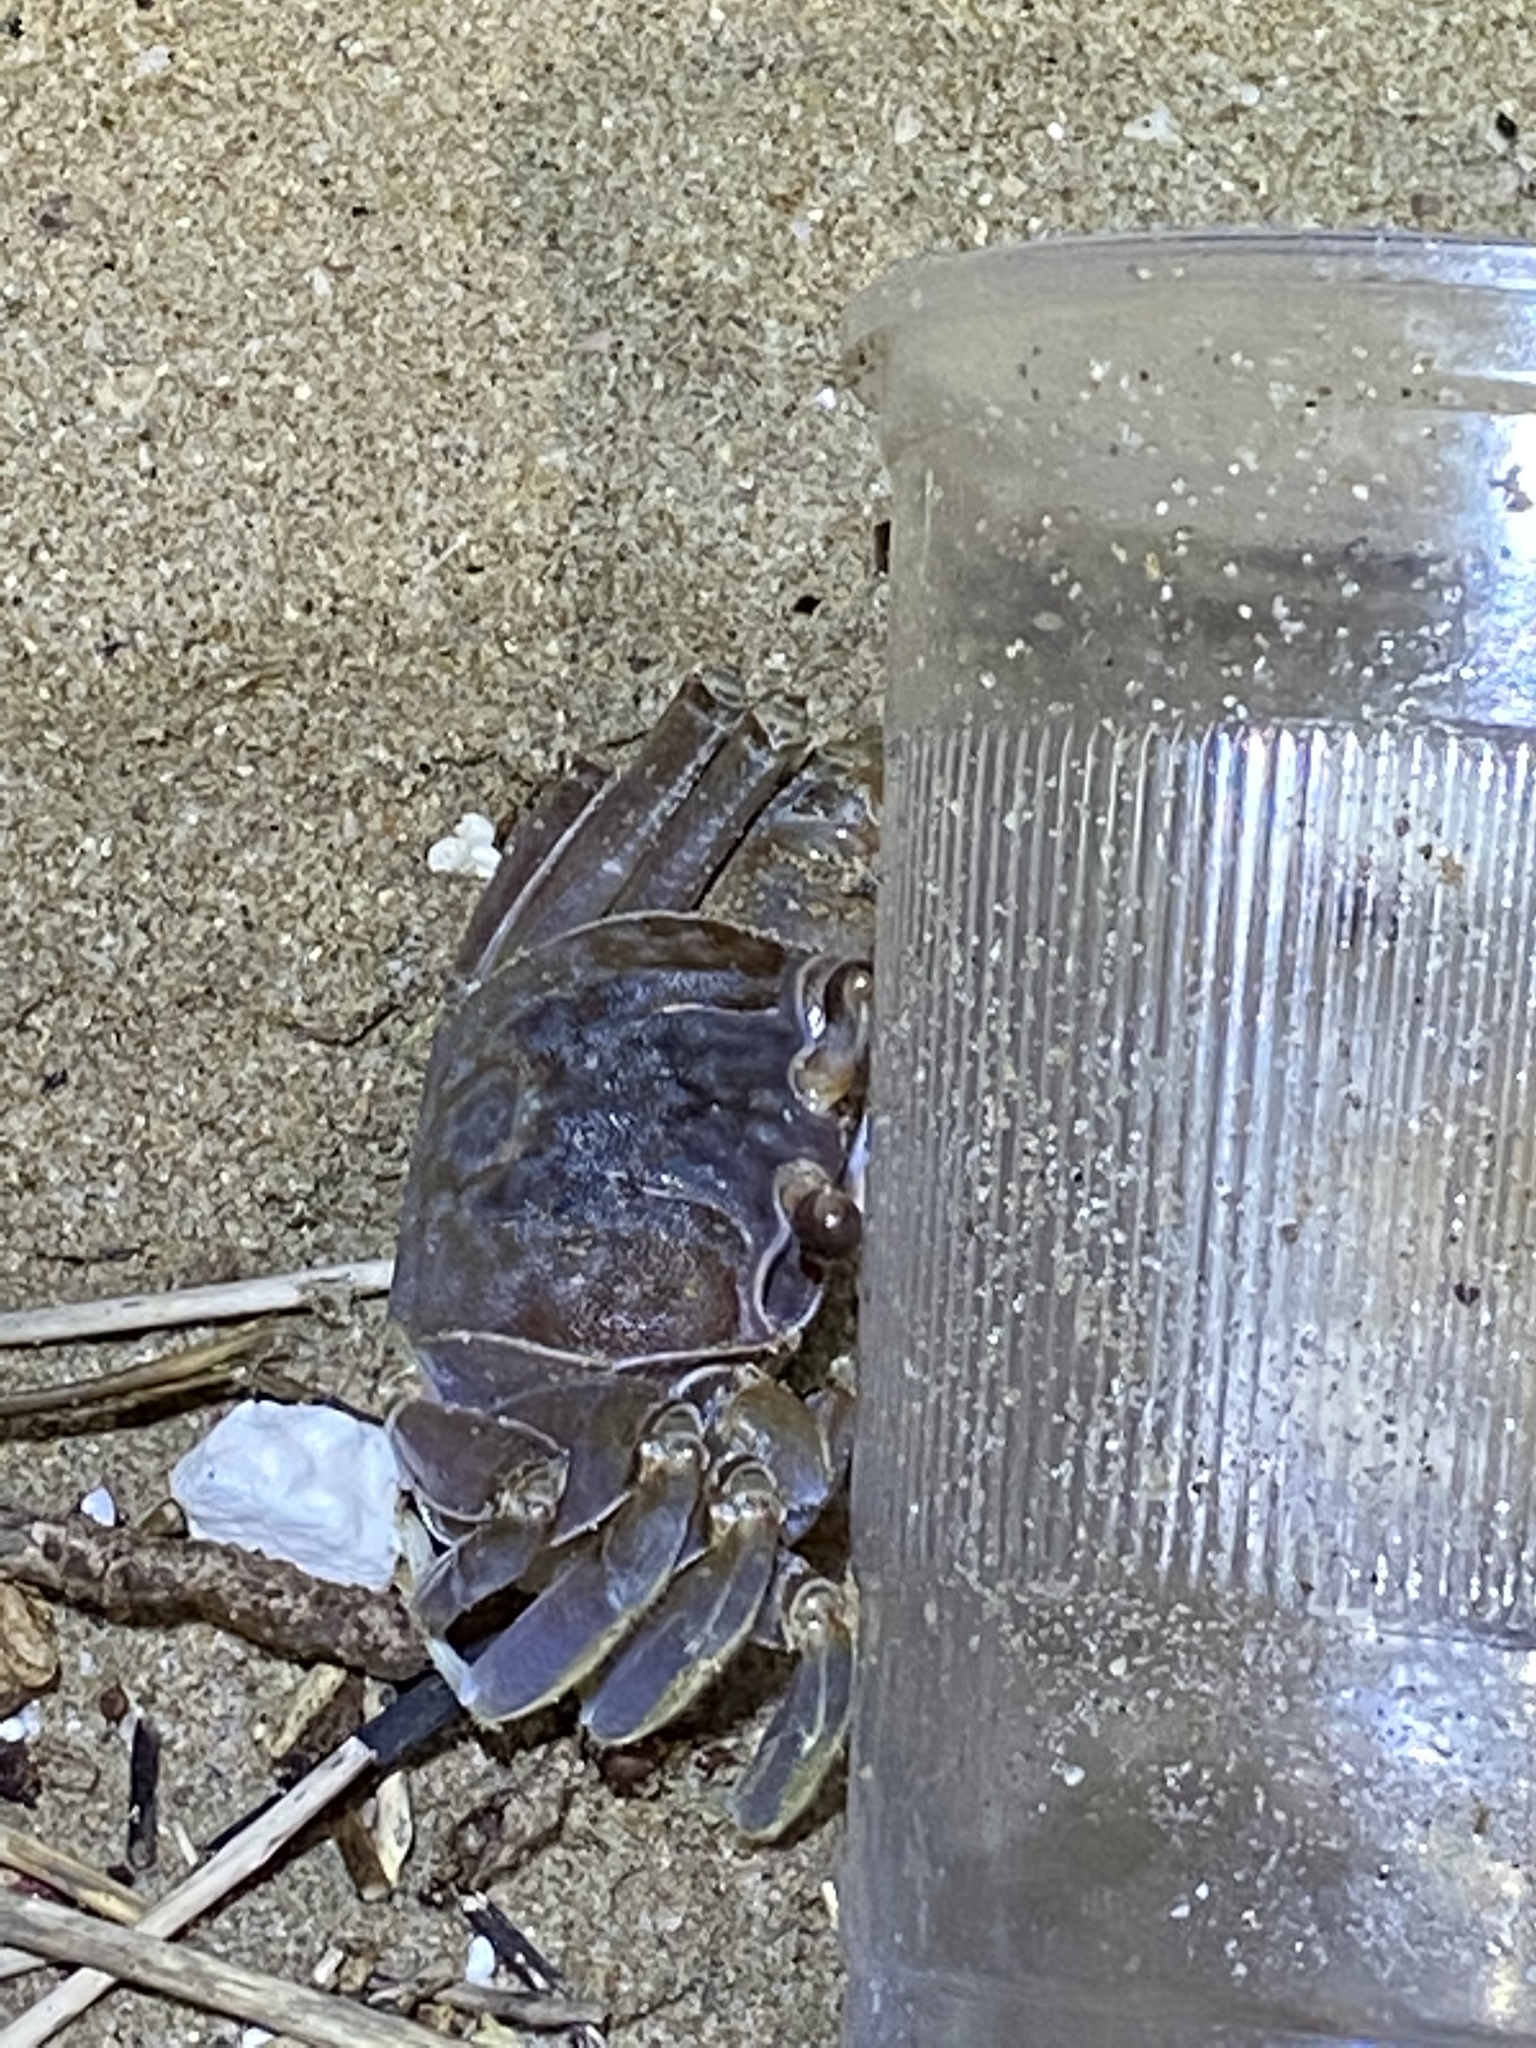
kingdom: Animalia
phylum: Arthropoda
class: Malacostraca
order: Decapoda
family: Ocypodidae
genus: Ocypode
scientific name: Ocypode occidentalis
